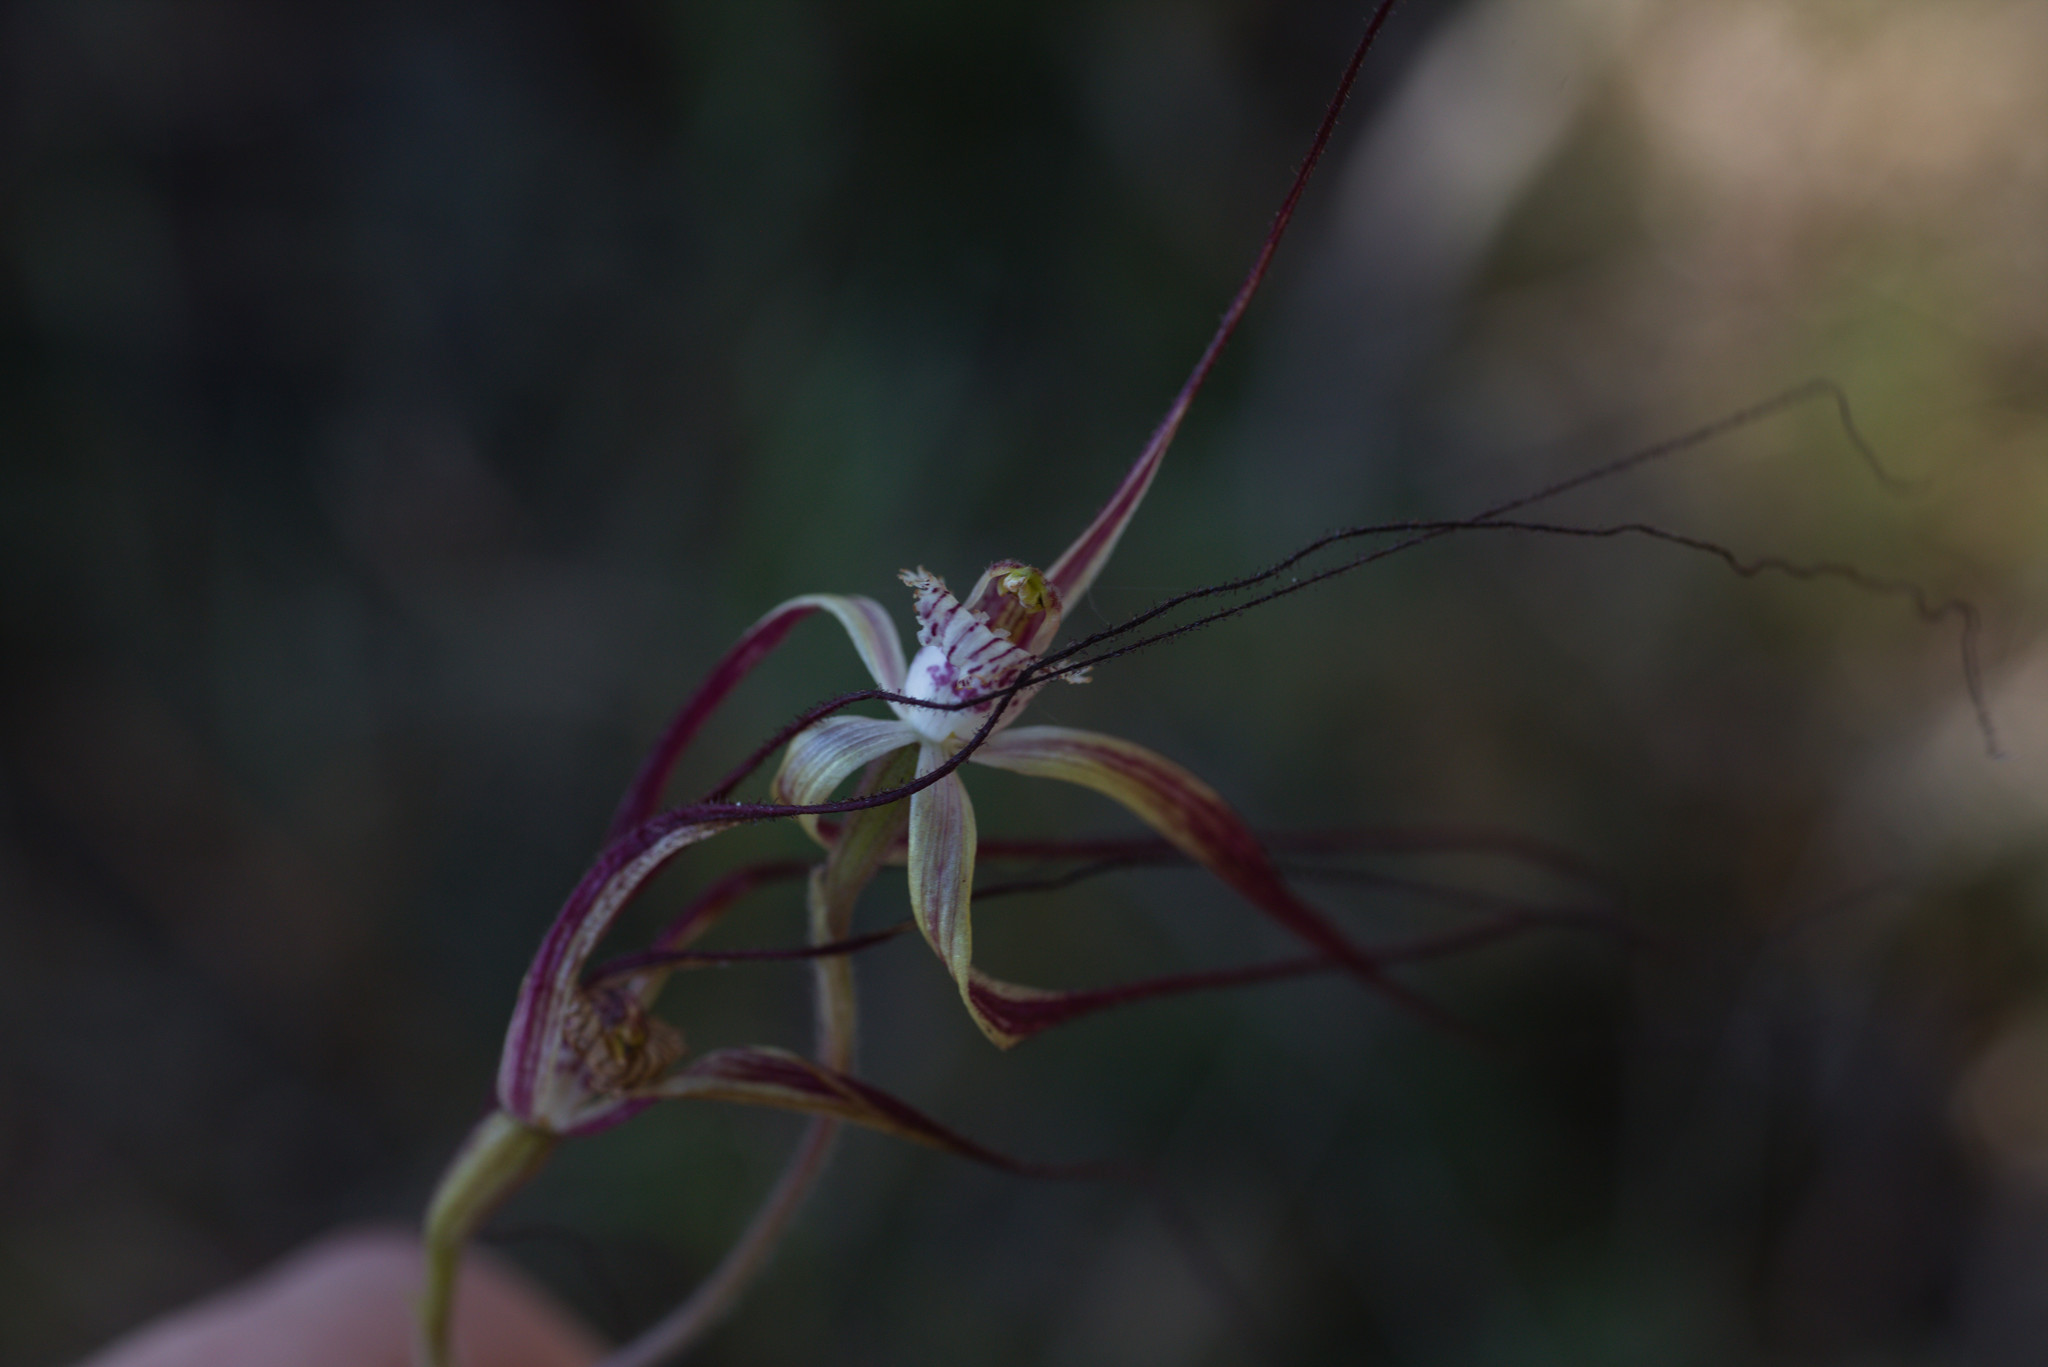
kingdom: Plantae
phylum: Tracheophyta
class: Liliopsida
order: Asparagales
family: Orchidaceae
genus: Caladenia
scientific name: Caladenia chapmanii
